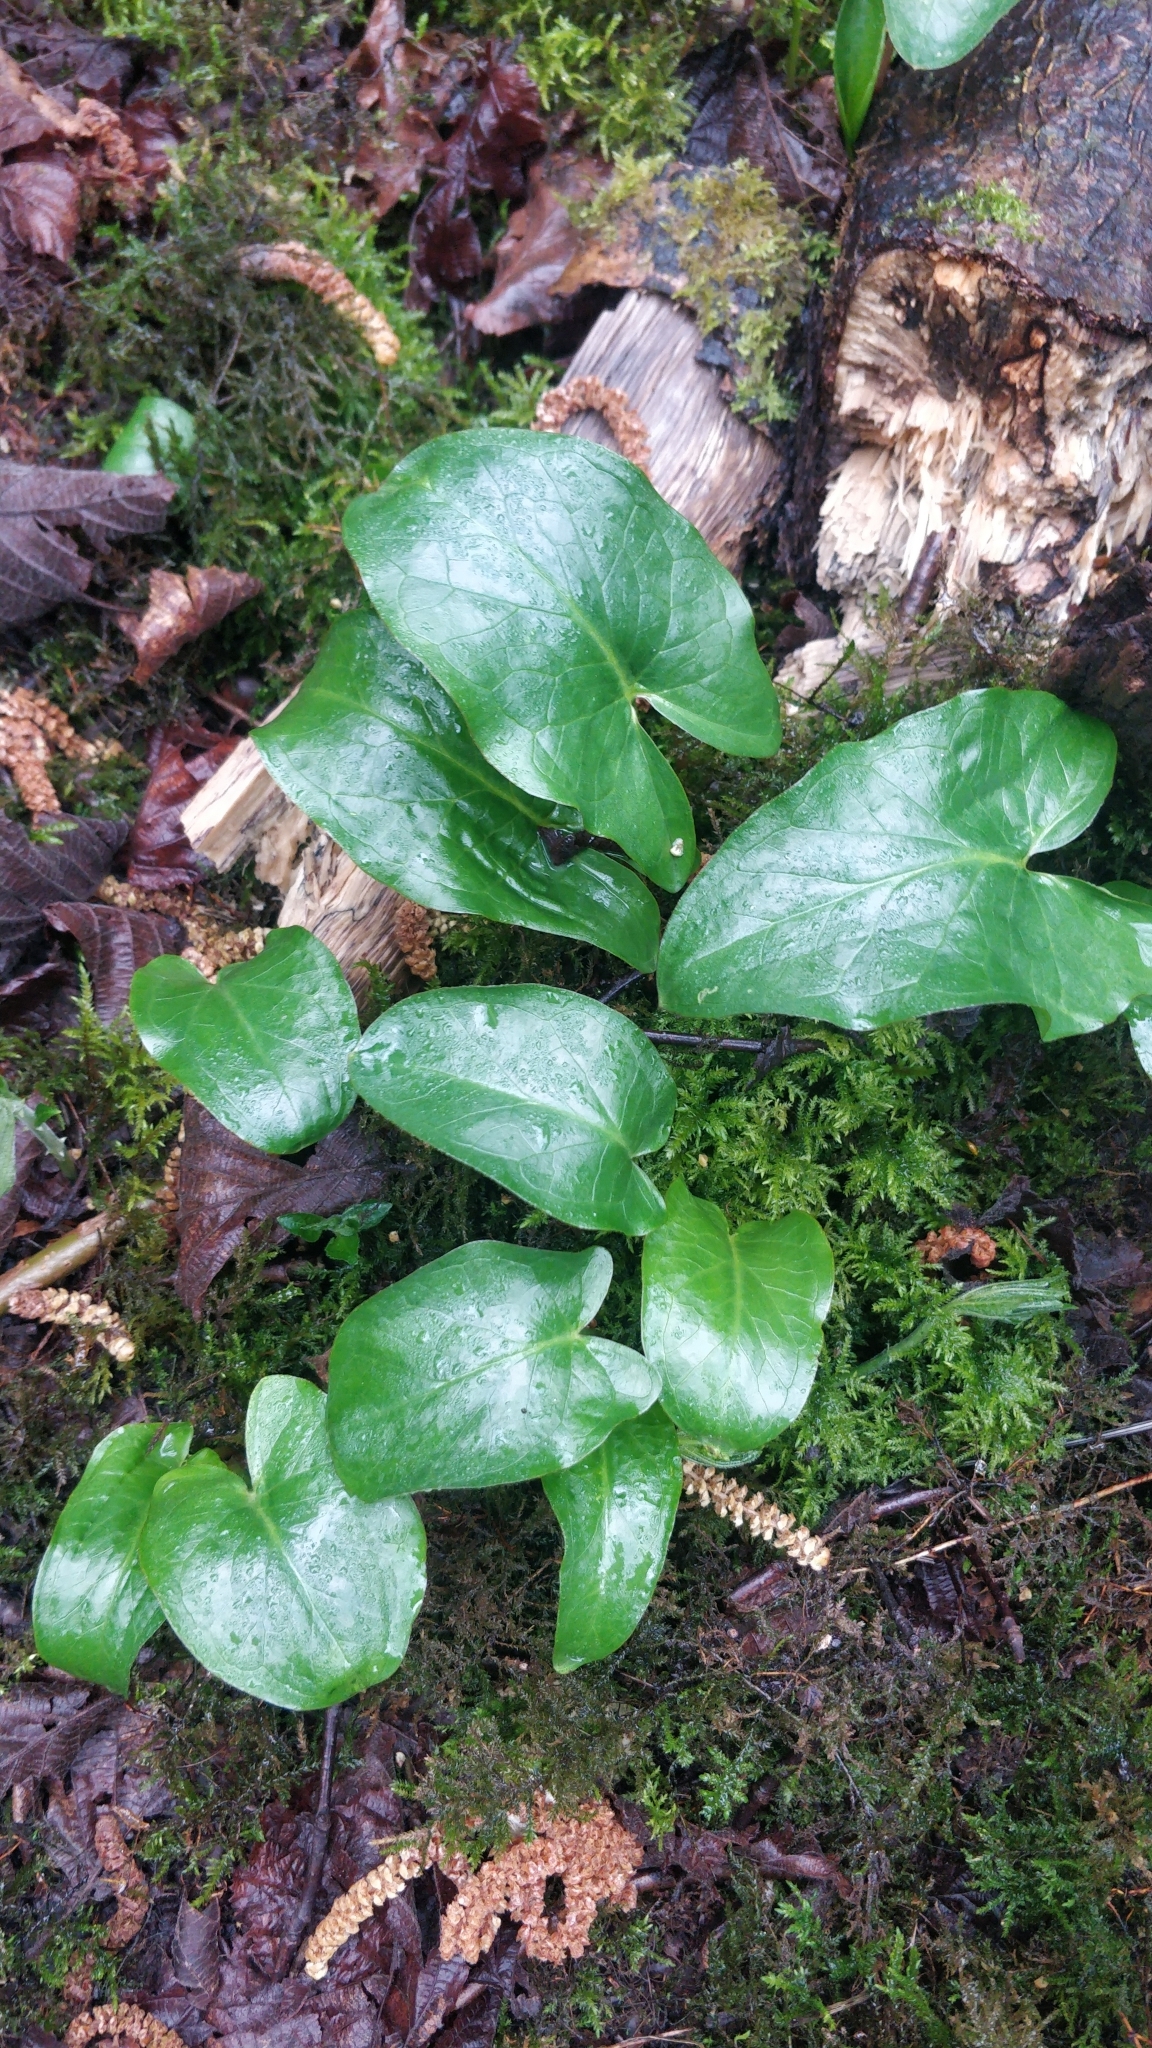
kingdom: Plantae
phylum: Tracheophyta
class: Liliopsida
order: Alismatales
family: Araceae
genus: Arum
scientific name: Arum maculatum
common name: Lords-and-ladies
